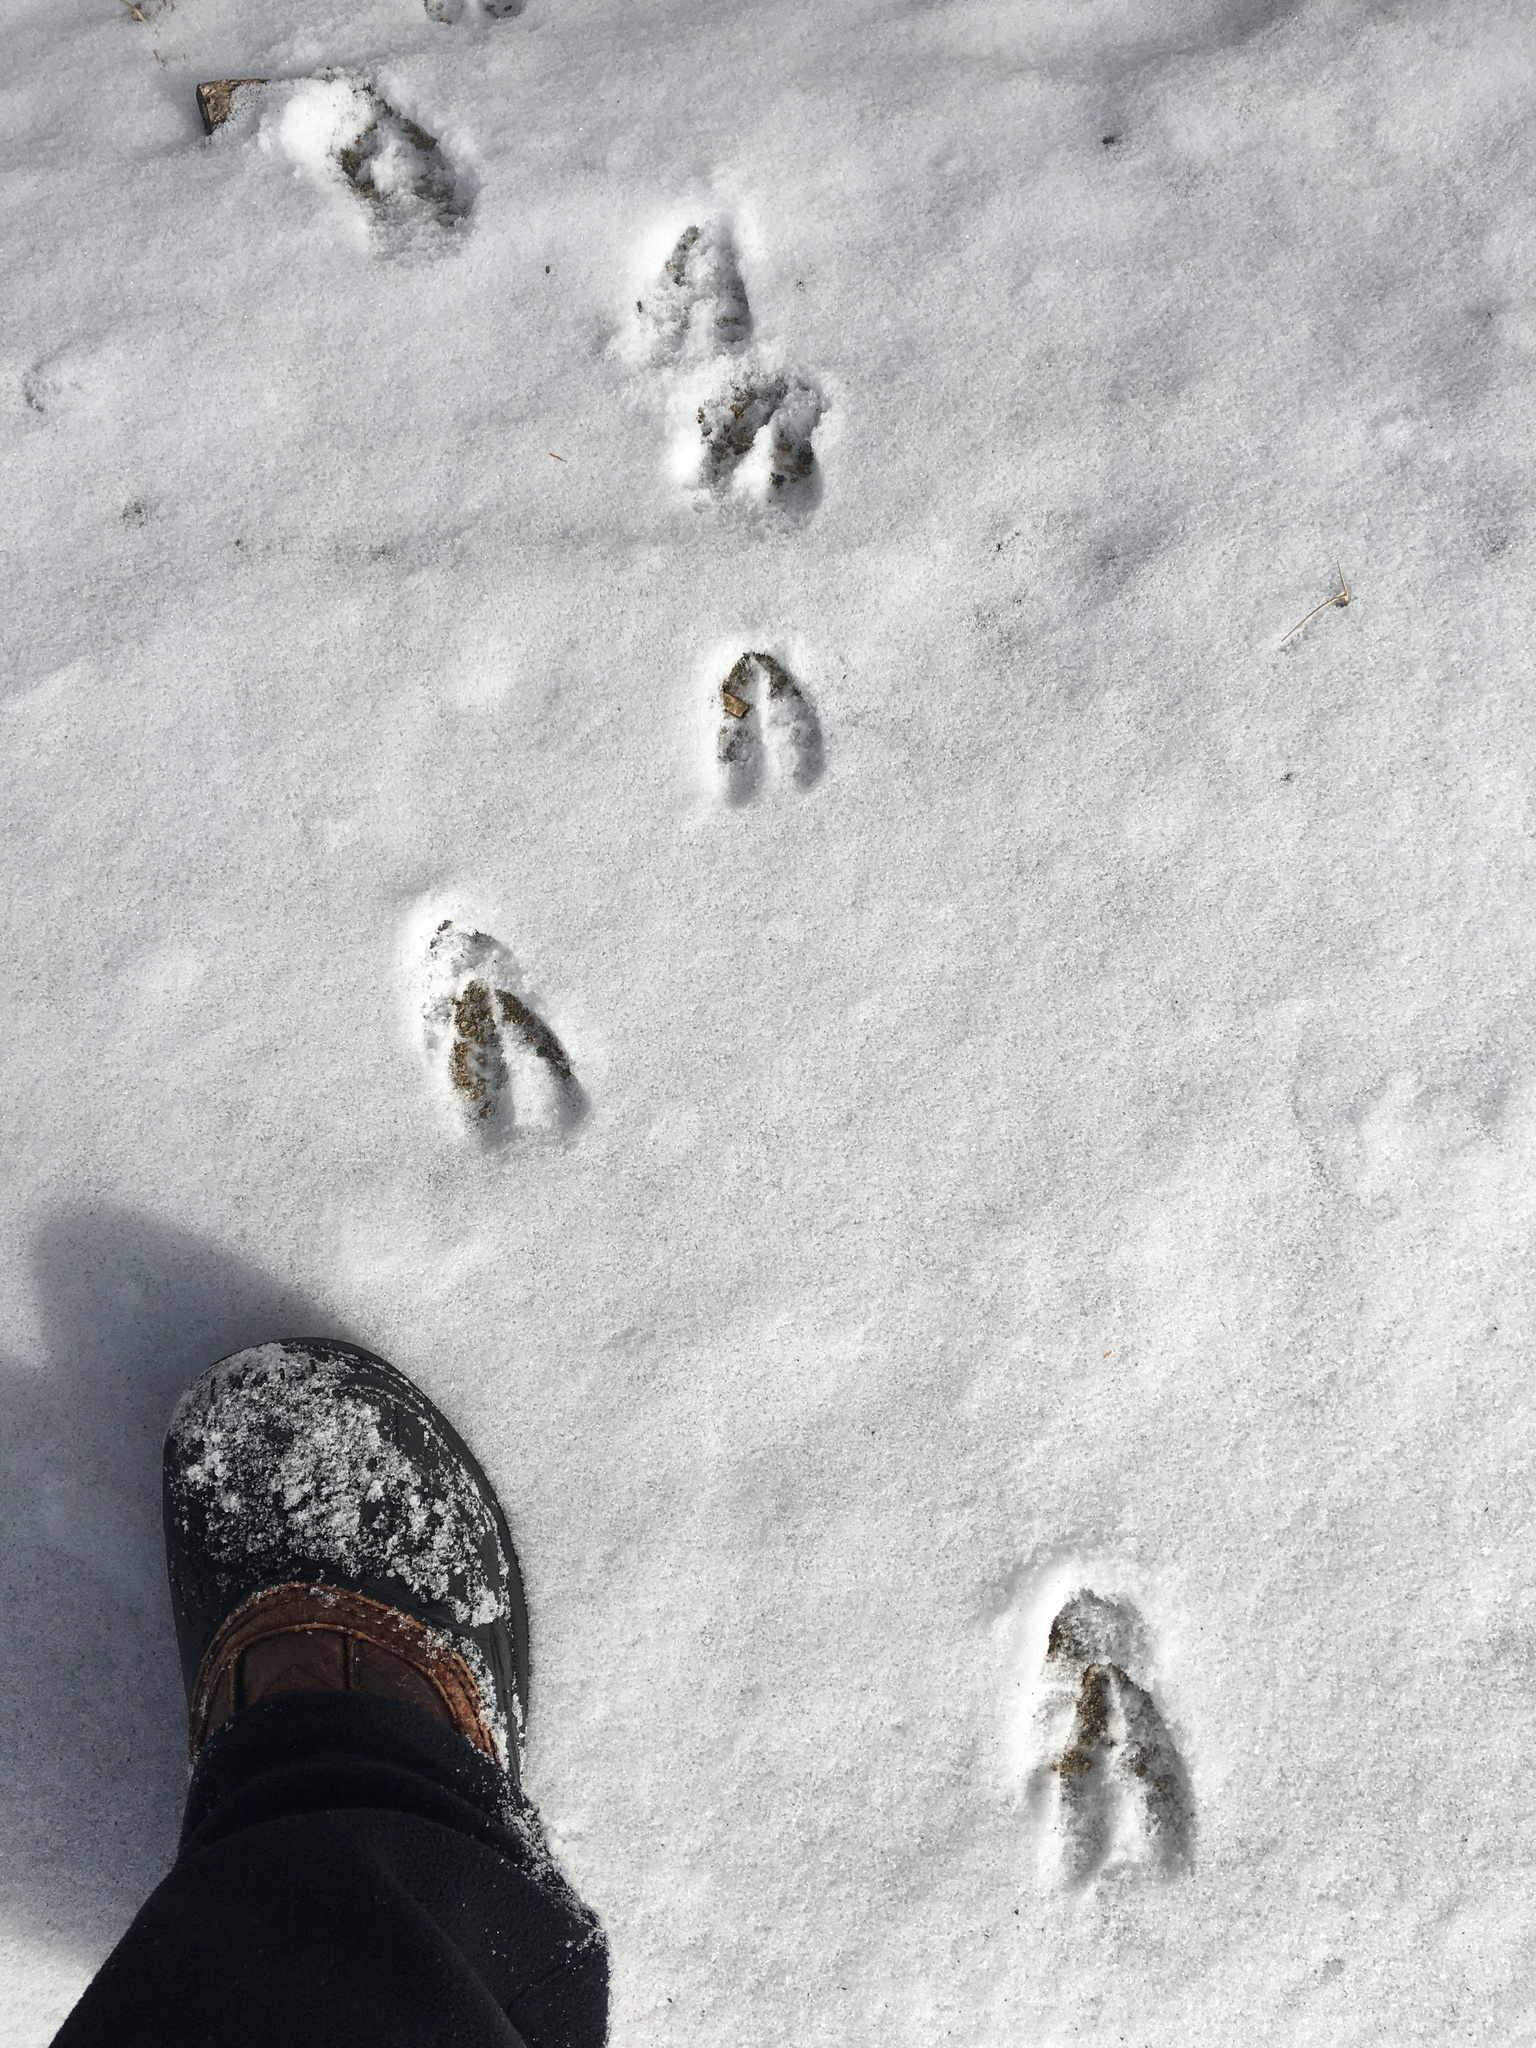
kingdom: Animalia
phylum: Chordata
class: Mammalia
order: Artiodactyla
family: Cervidae
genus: Odocoileus
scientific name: Odocoileus virginianus
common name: White-tailed deer
